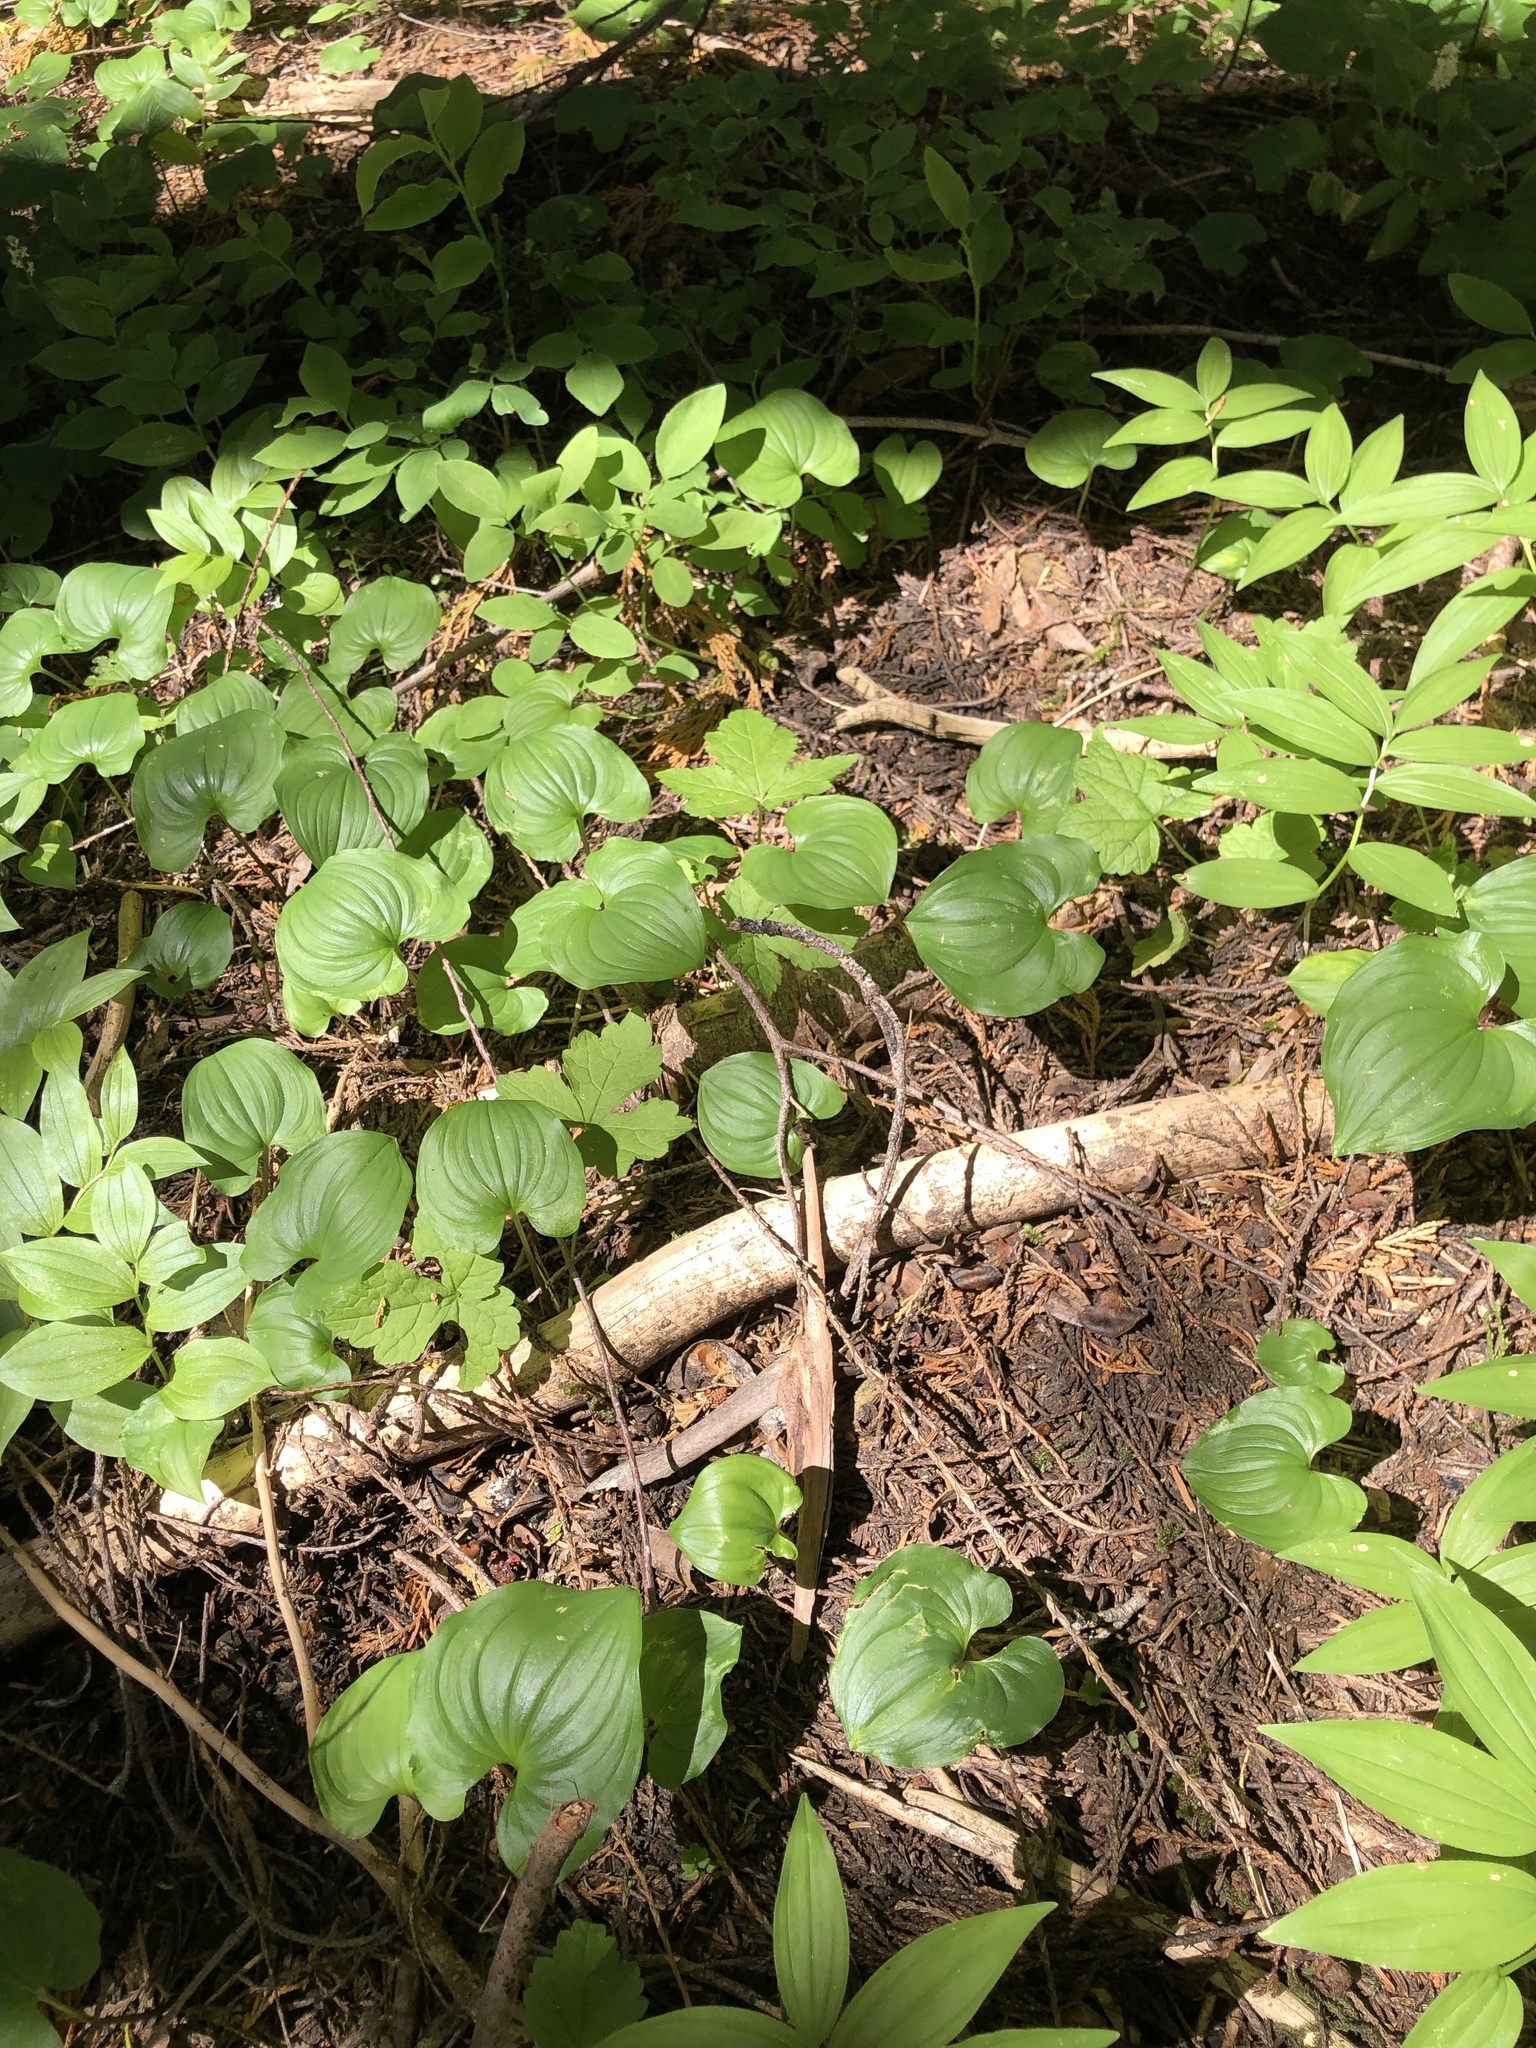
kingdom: Plantae
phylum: Tracheophyta
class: Liliopsida
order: Asparagales
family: Asparagaceae
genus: Maianthemum
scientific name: Maianthemum dilatatum
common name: False lily-of-the-valley
